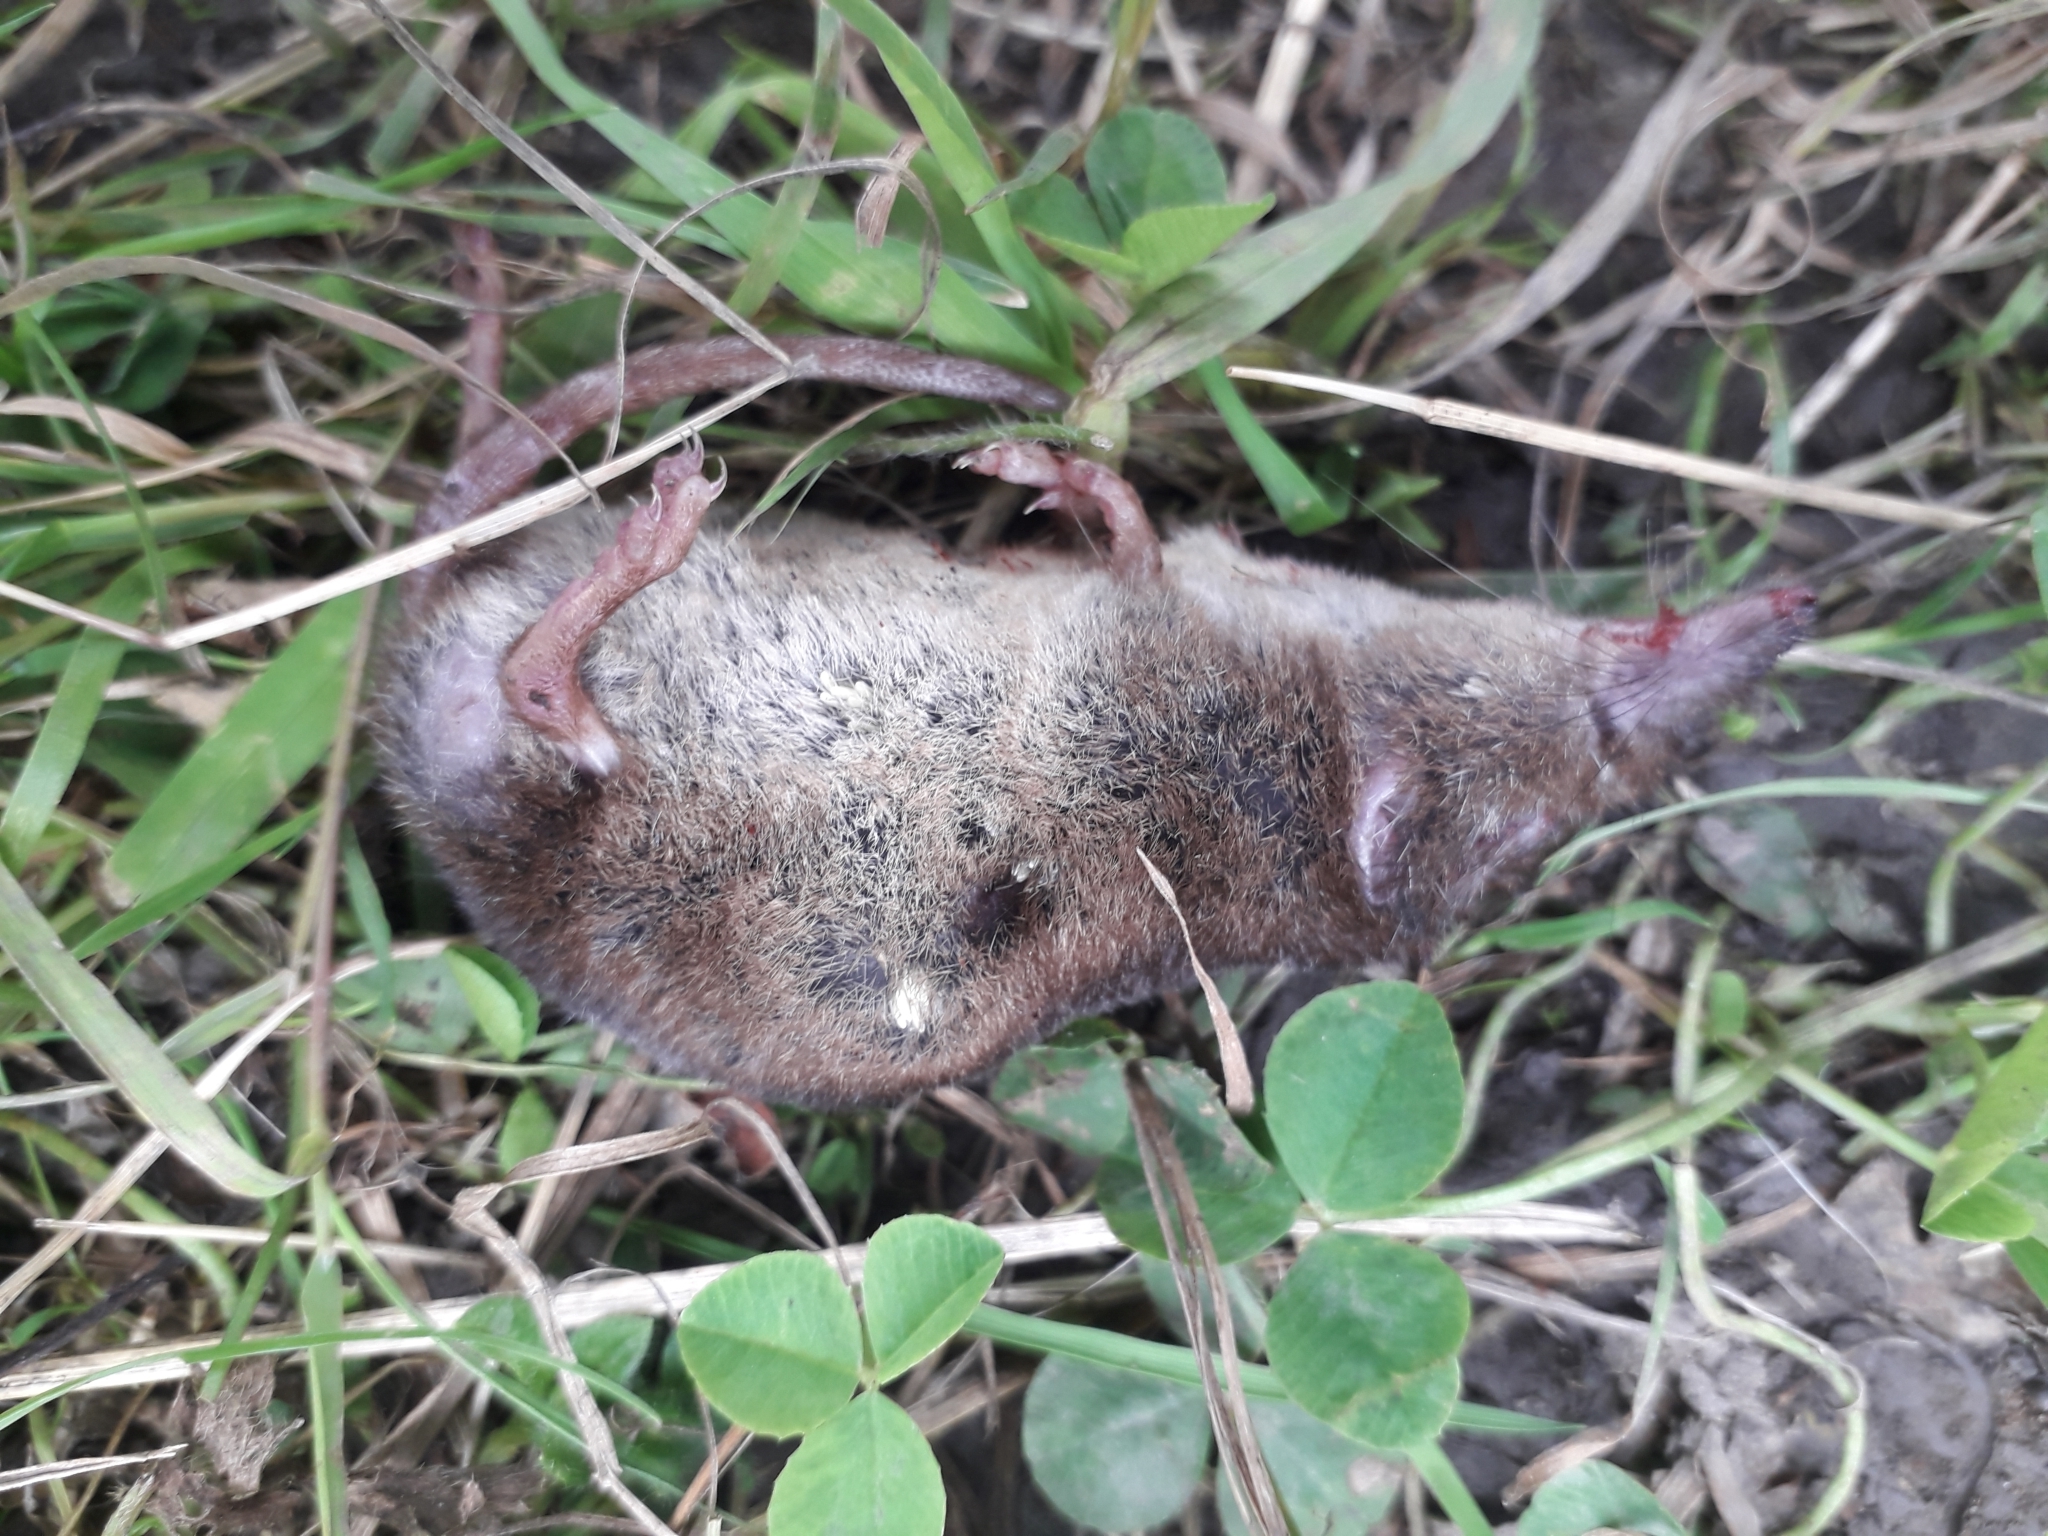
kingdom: Animalia
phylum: Chordata
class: Mammalia
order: Soricomorpha
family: Soricidae
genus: Sorex
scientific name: Sorex araneus
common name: Common shrew
